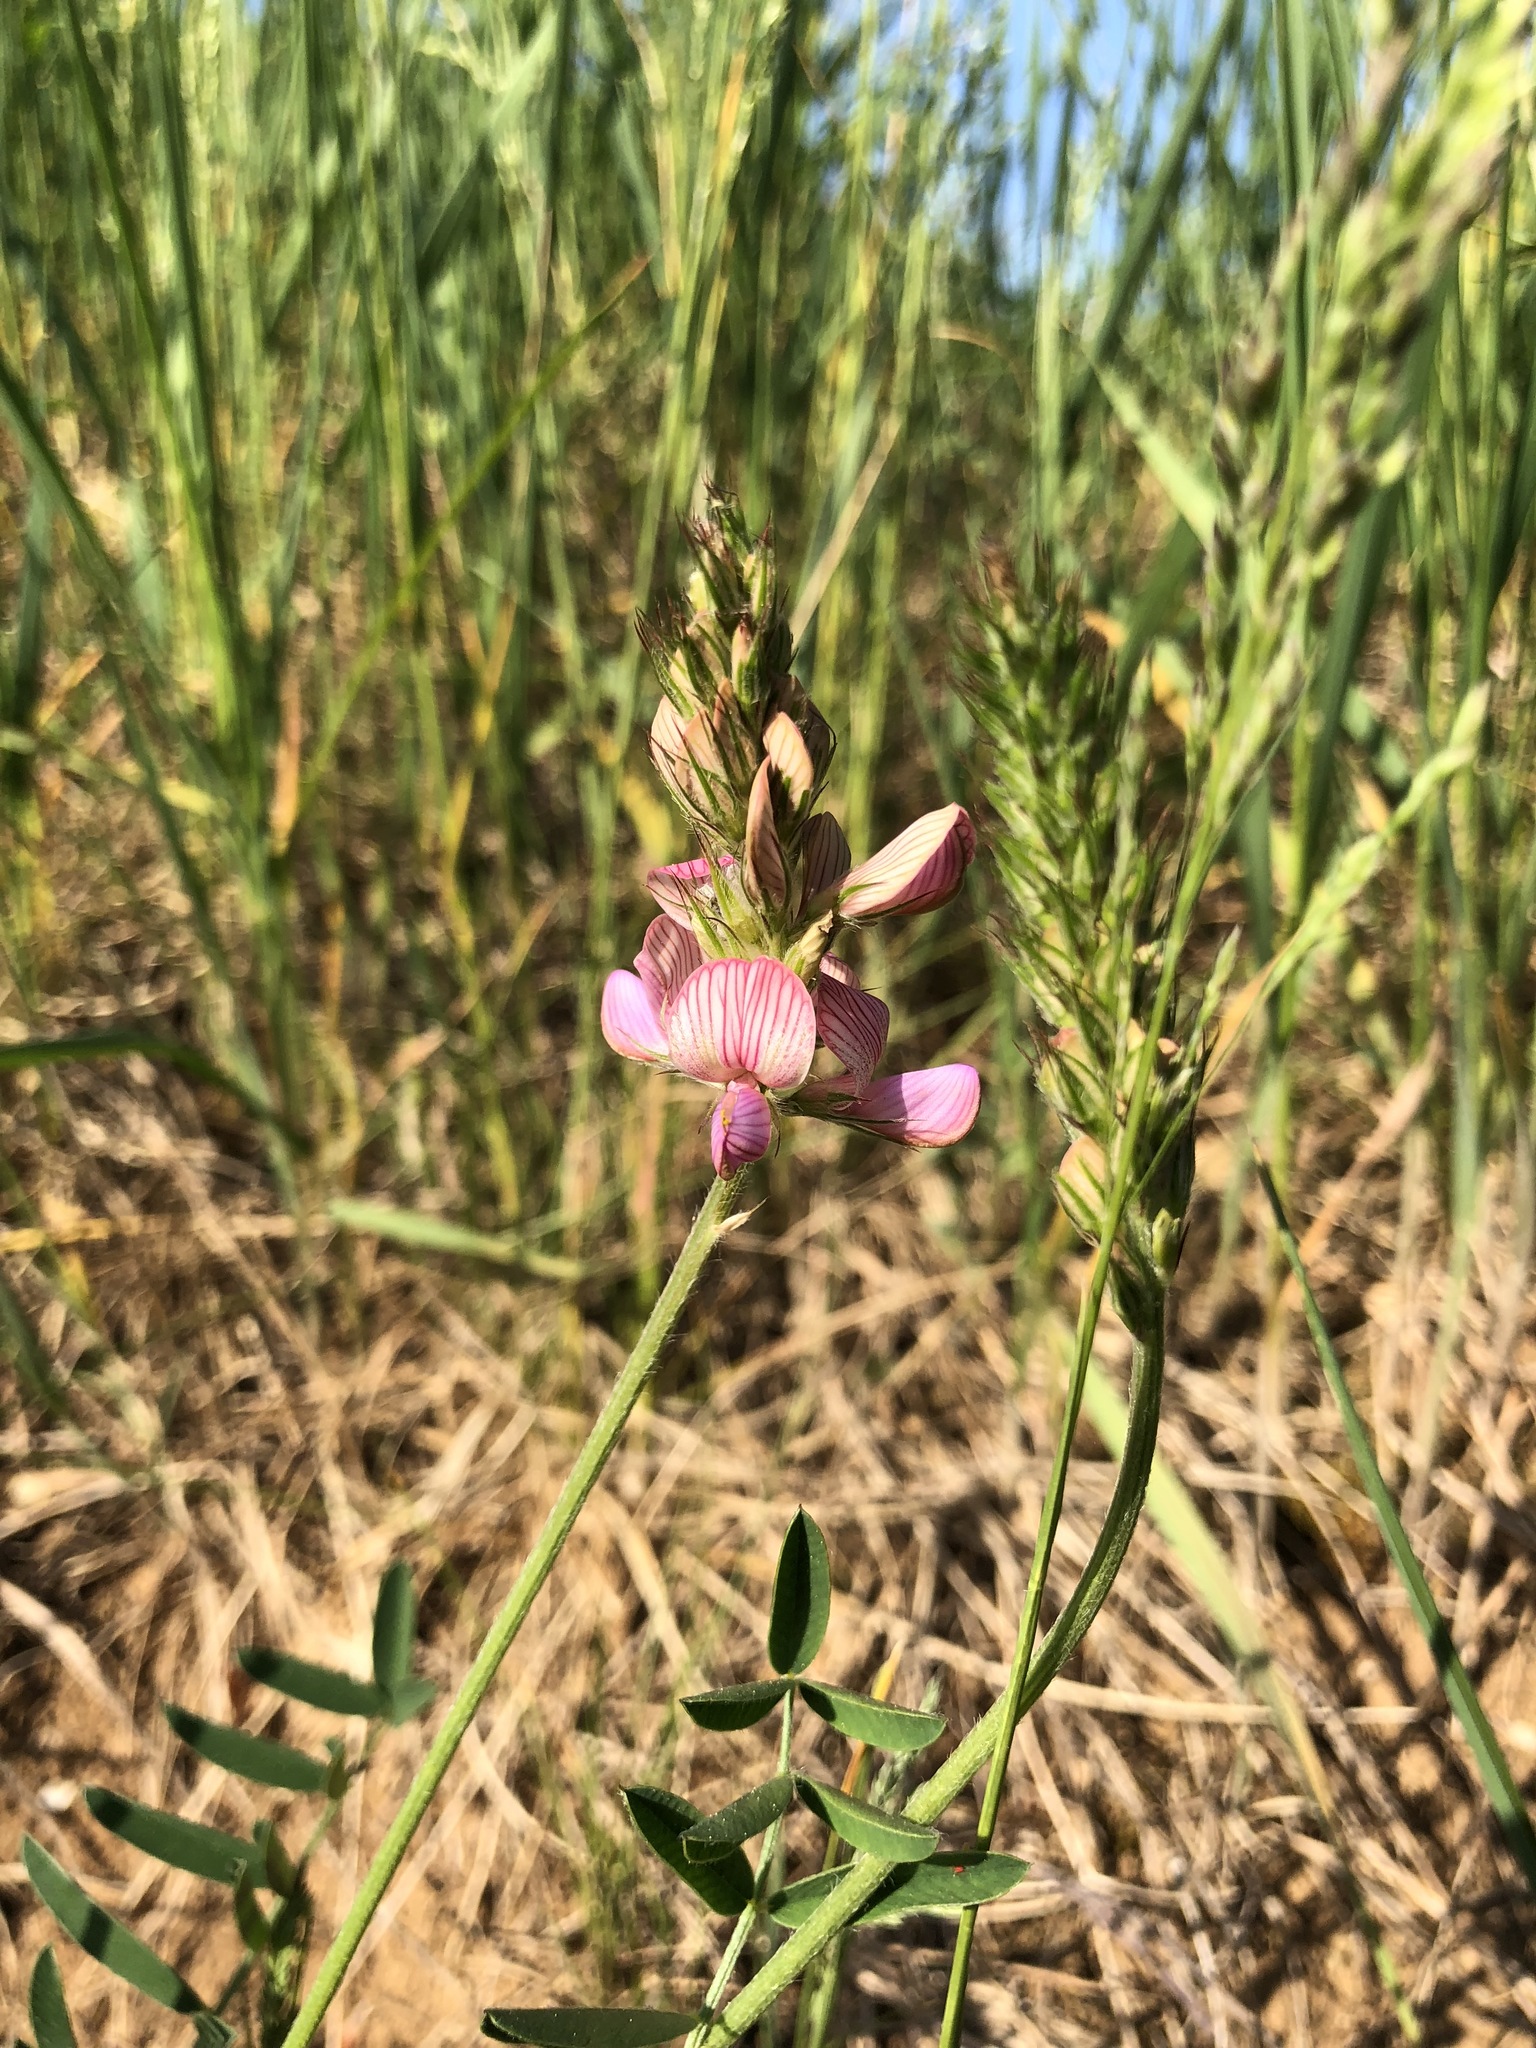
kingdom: Plantae
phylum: Tracheophyta
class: Magnoliopsida
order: Fabales
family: Fabaceae
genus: Onobrychis
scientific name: Onobrychis viciifolia
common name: Sainfoin
